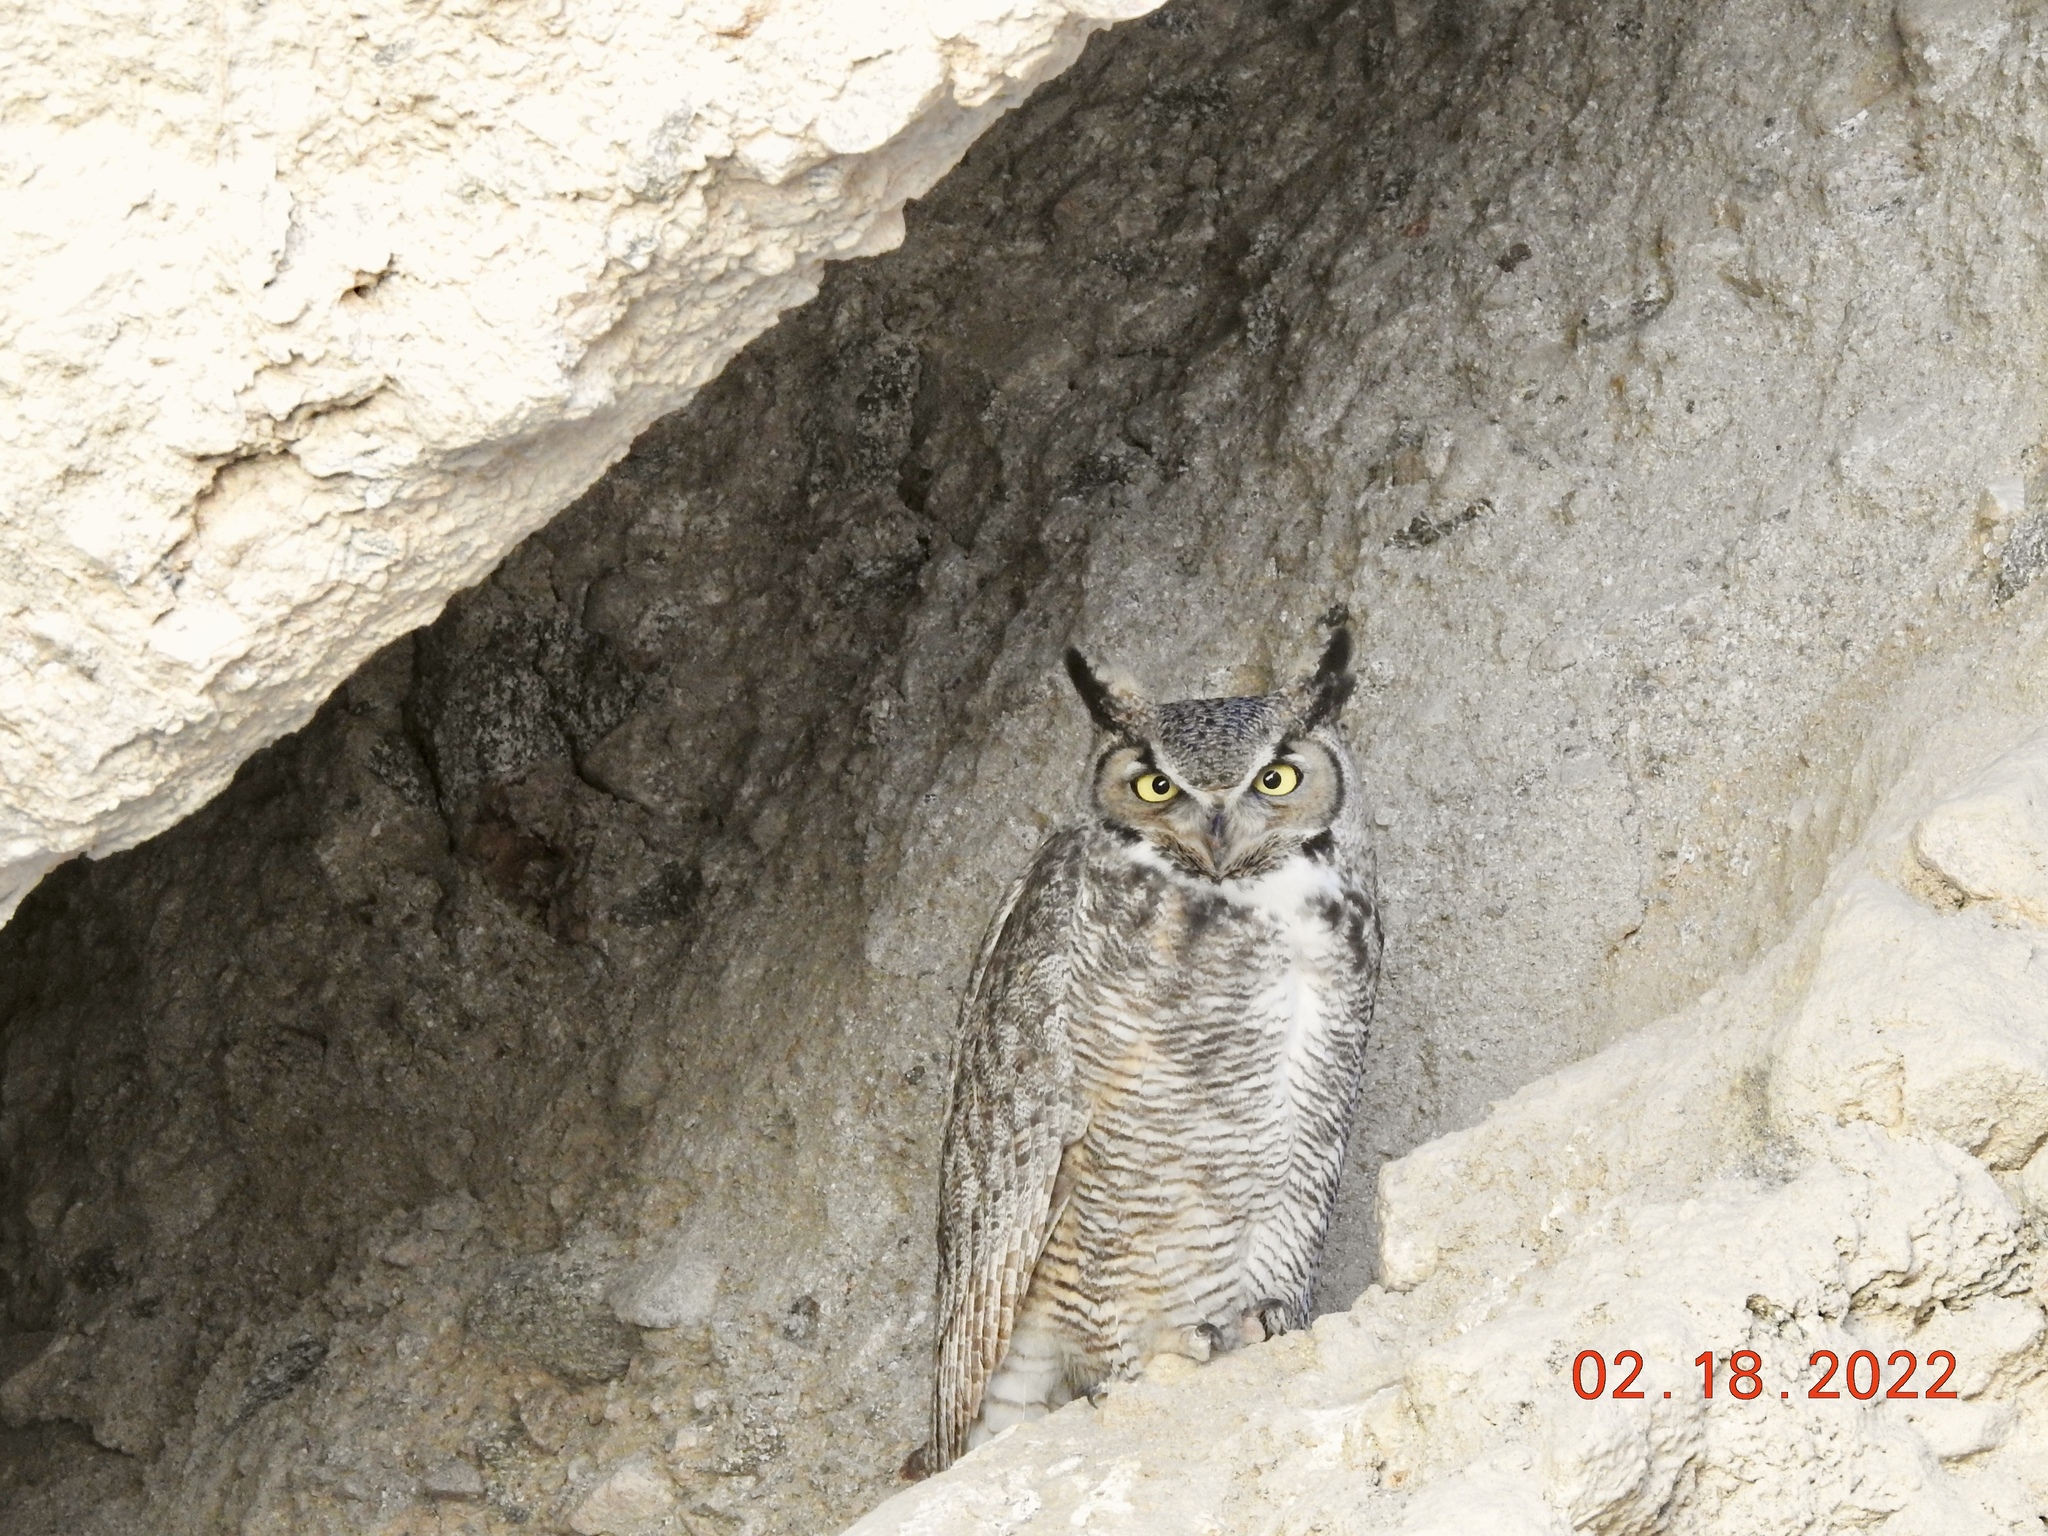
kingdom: Animalia
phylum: Chordata
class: Aves
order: Strigiformes
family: Strigidae
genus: Bubo
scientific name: Bubo virginianus
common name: Great horned owl
